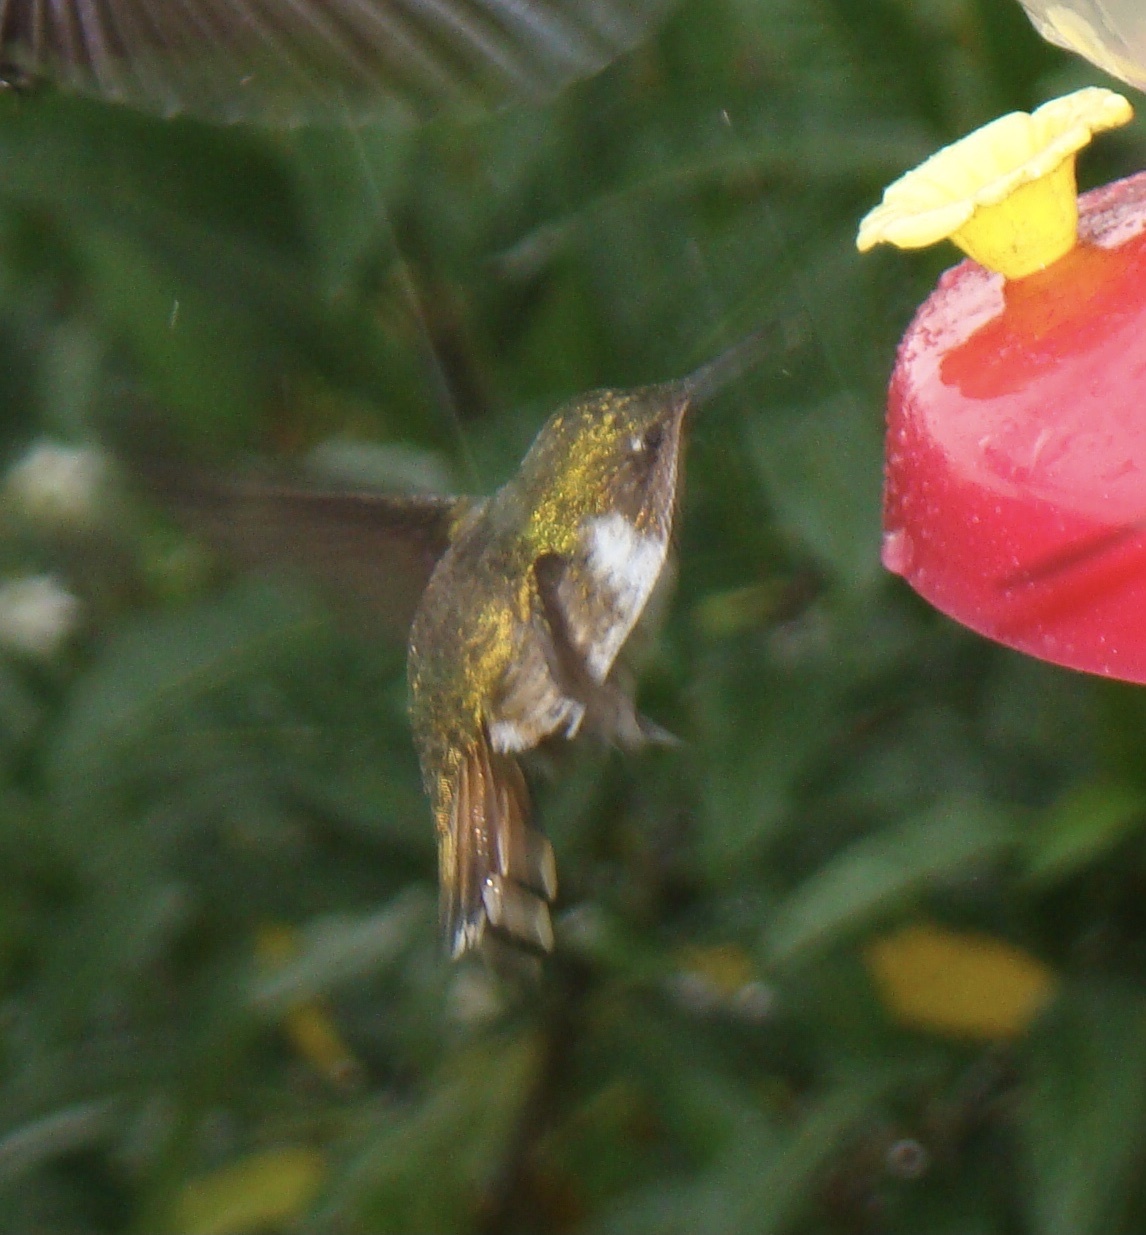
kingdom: Animalia
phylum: Chordata
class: Aves
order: Apodiformes
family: Trochilidae
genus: Selasphorus
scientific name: Selasphorus flammula
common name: Volcano hummingbird
